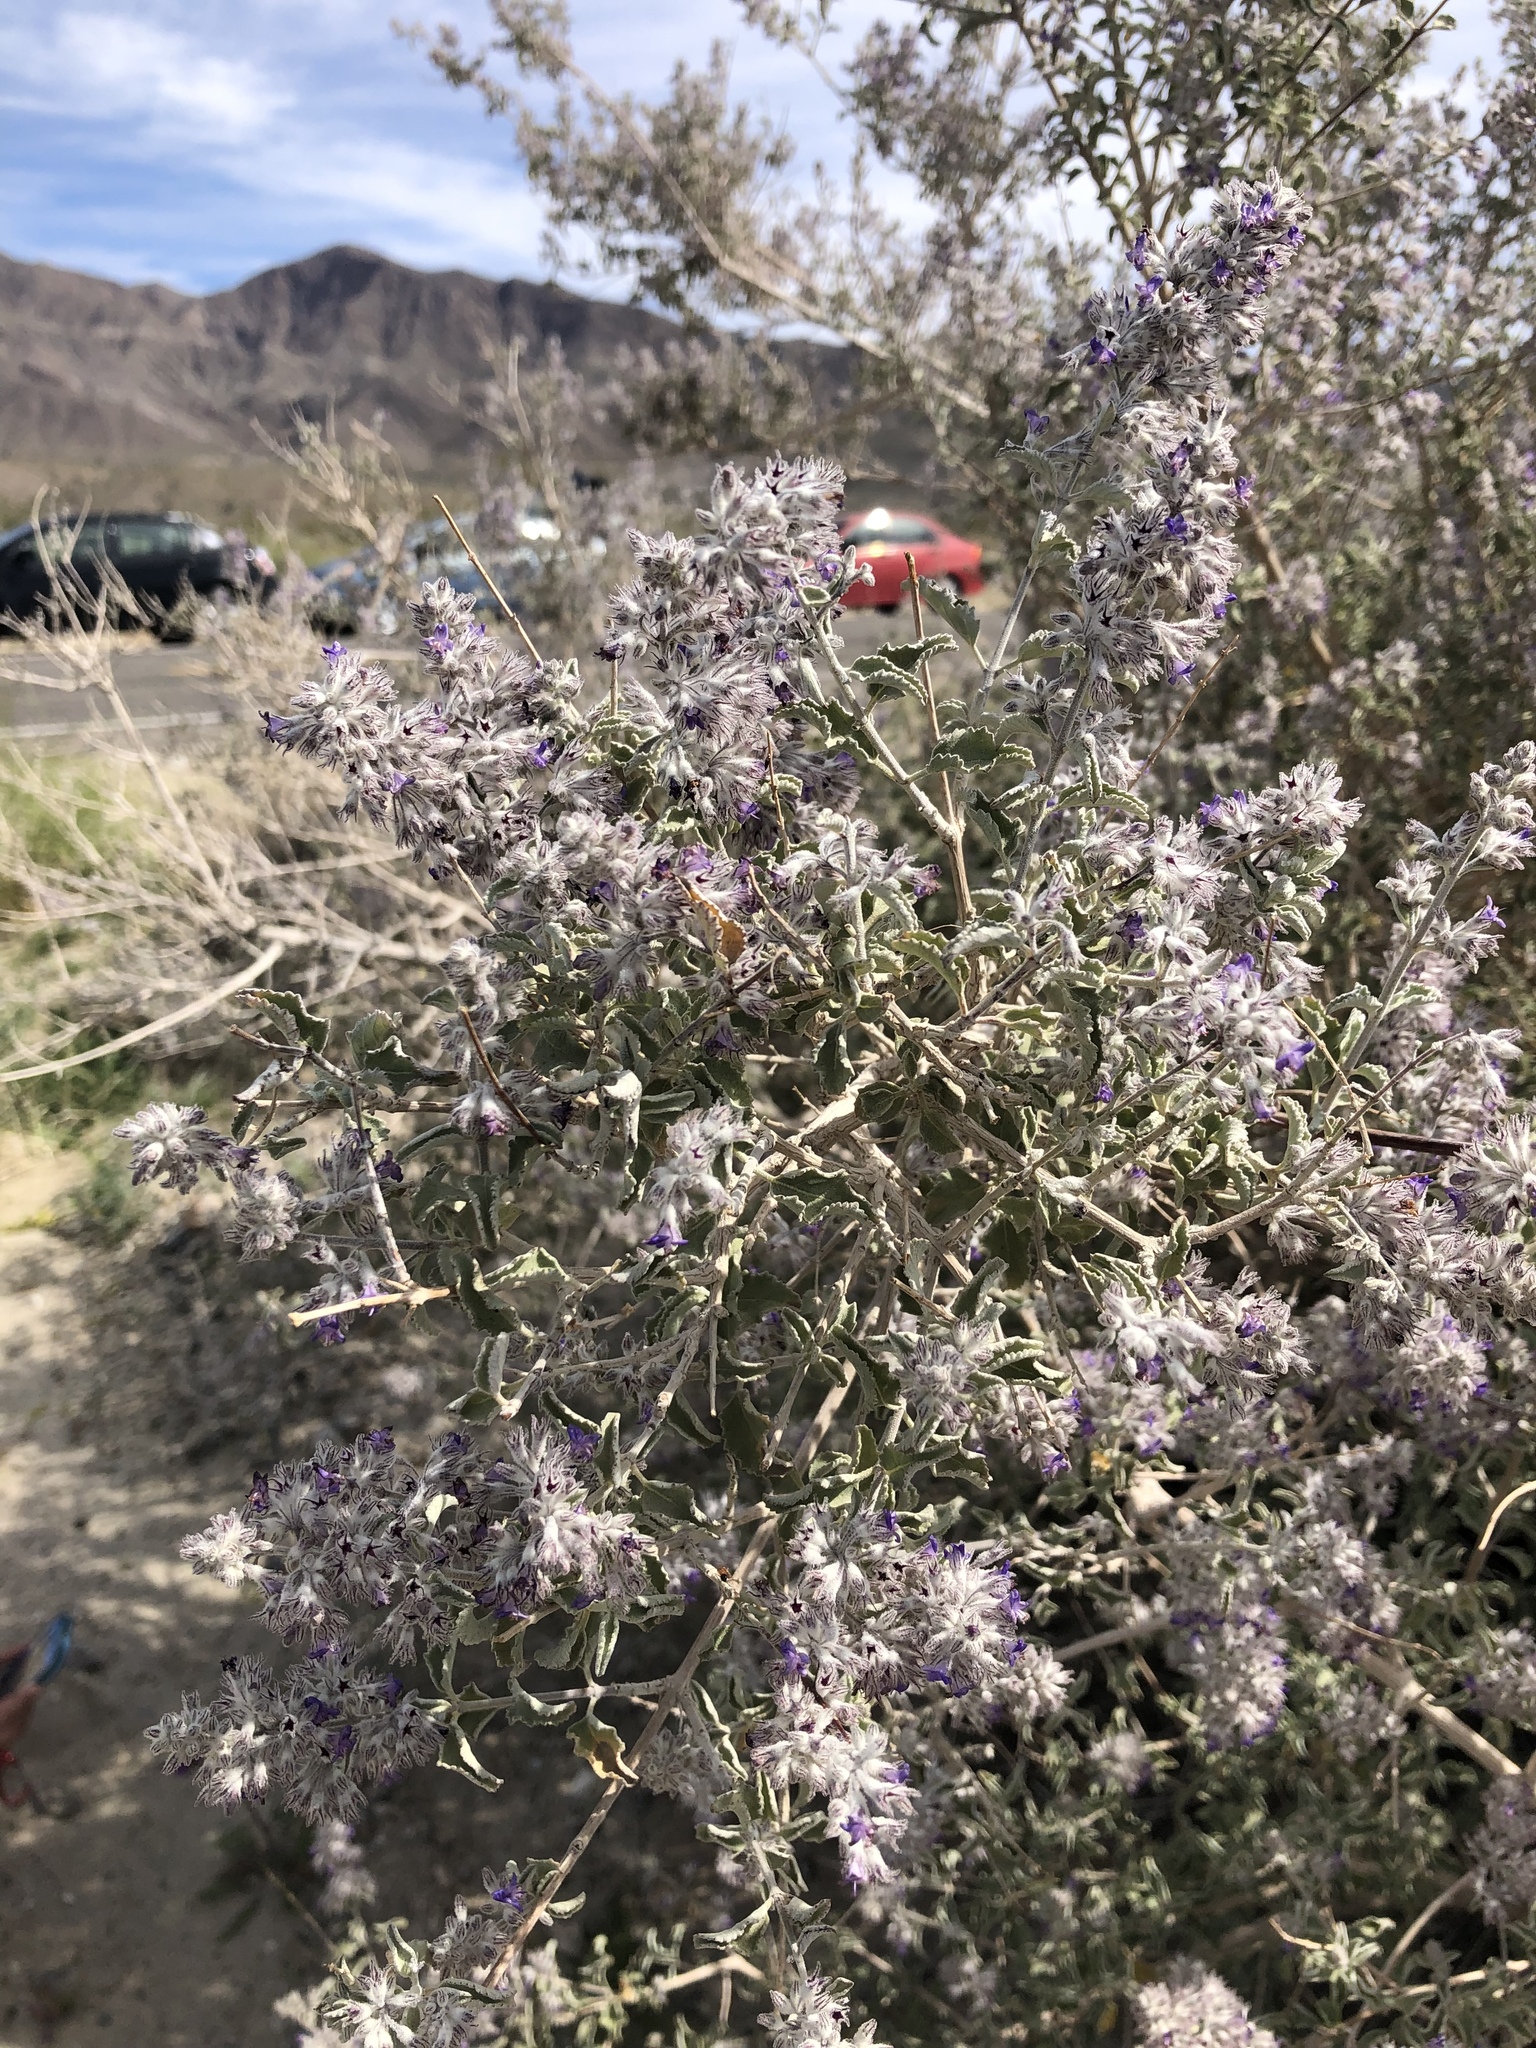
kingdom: Plantae
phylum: Tracheophyta
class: Magnoliopsida
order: Lamiales
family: Lamiaceae
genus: Condea
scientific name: Condea emoryi
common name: Chia
